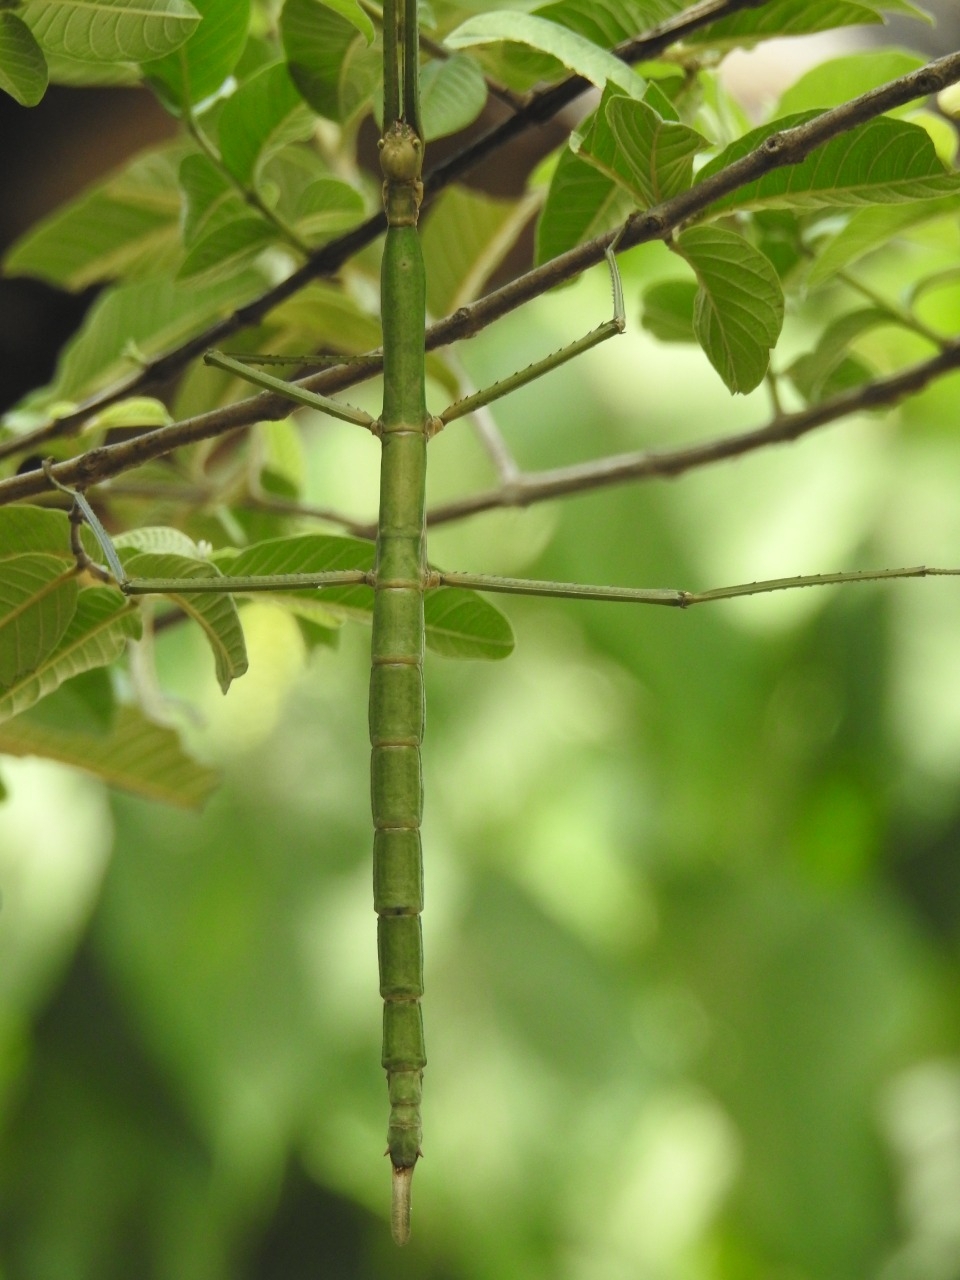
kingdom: Animalia
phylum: Arthropoda
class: Insecta
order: Phasmida
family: Phasmatidae
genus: Nesiophasma
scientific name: Nesiophasma
